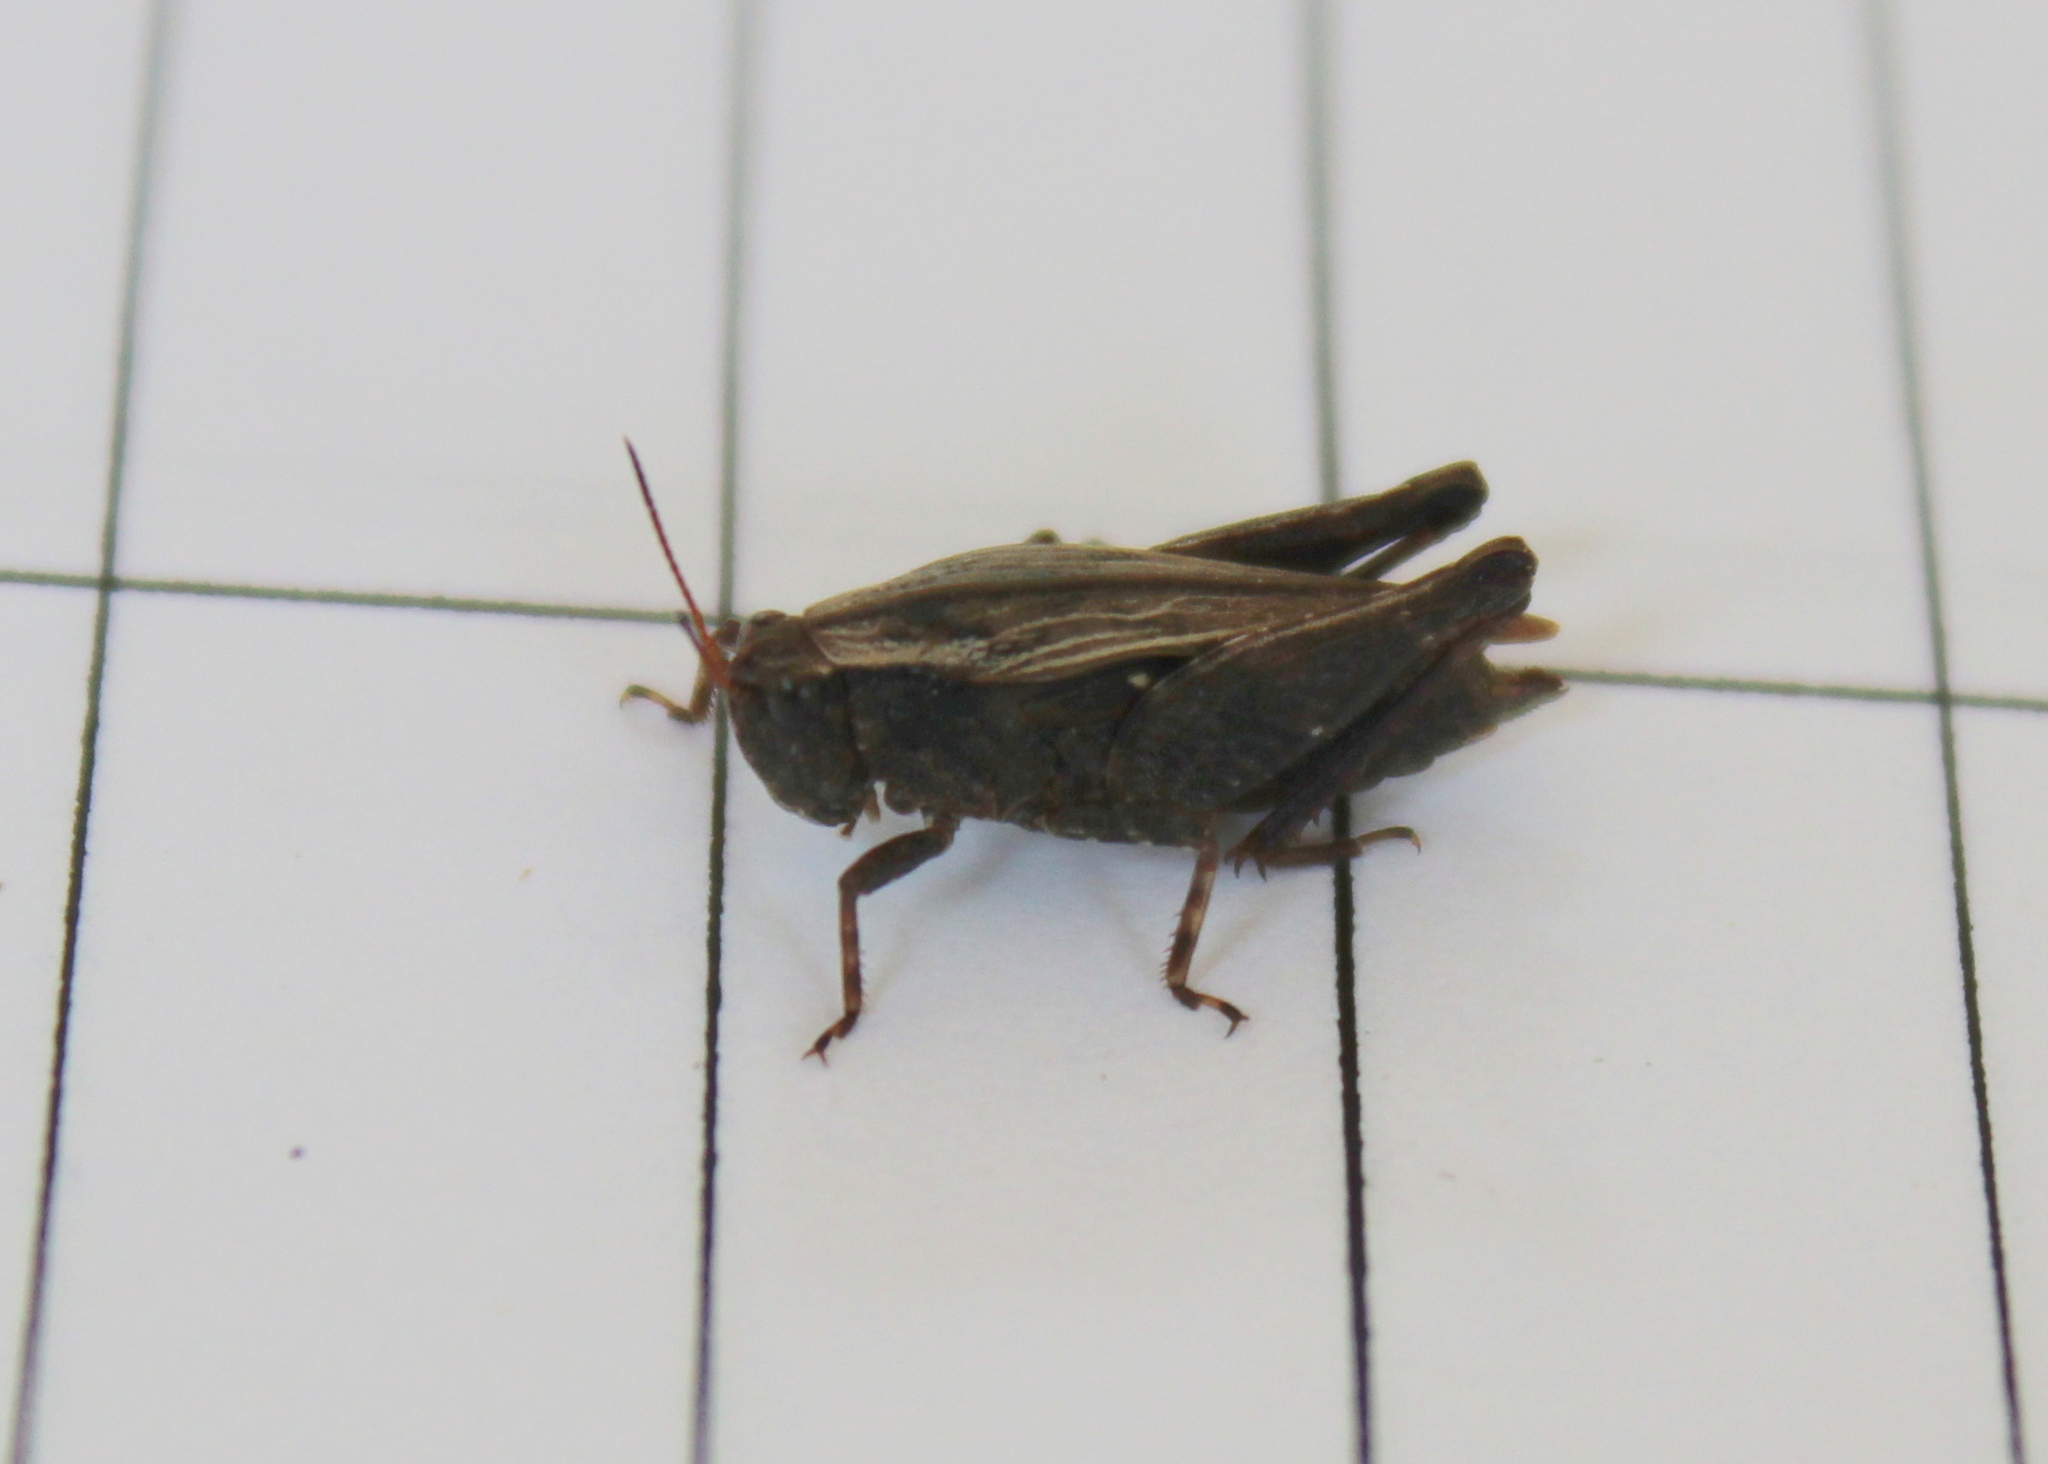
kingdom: Animalia
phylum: Arthropoda
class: Insecta
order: Orthoptera
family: Tetrigidae
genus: Tettigidea
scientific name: Tettigidea laterale
